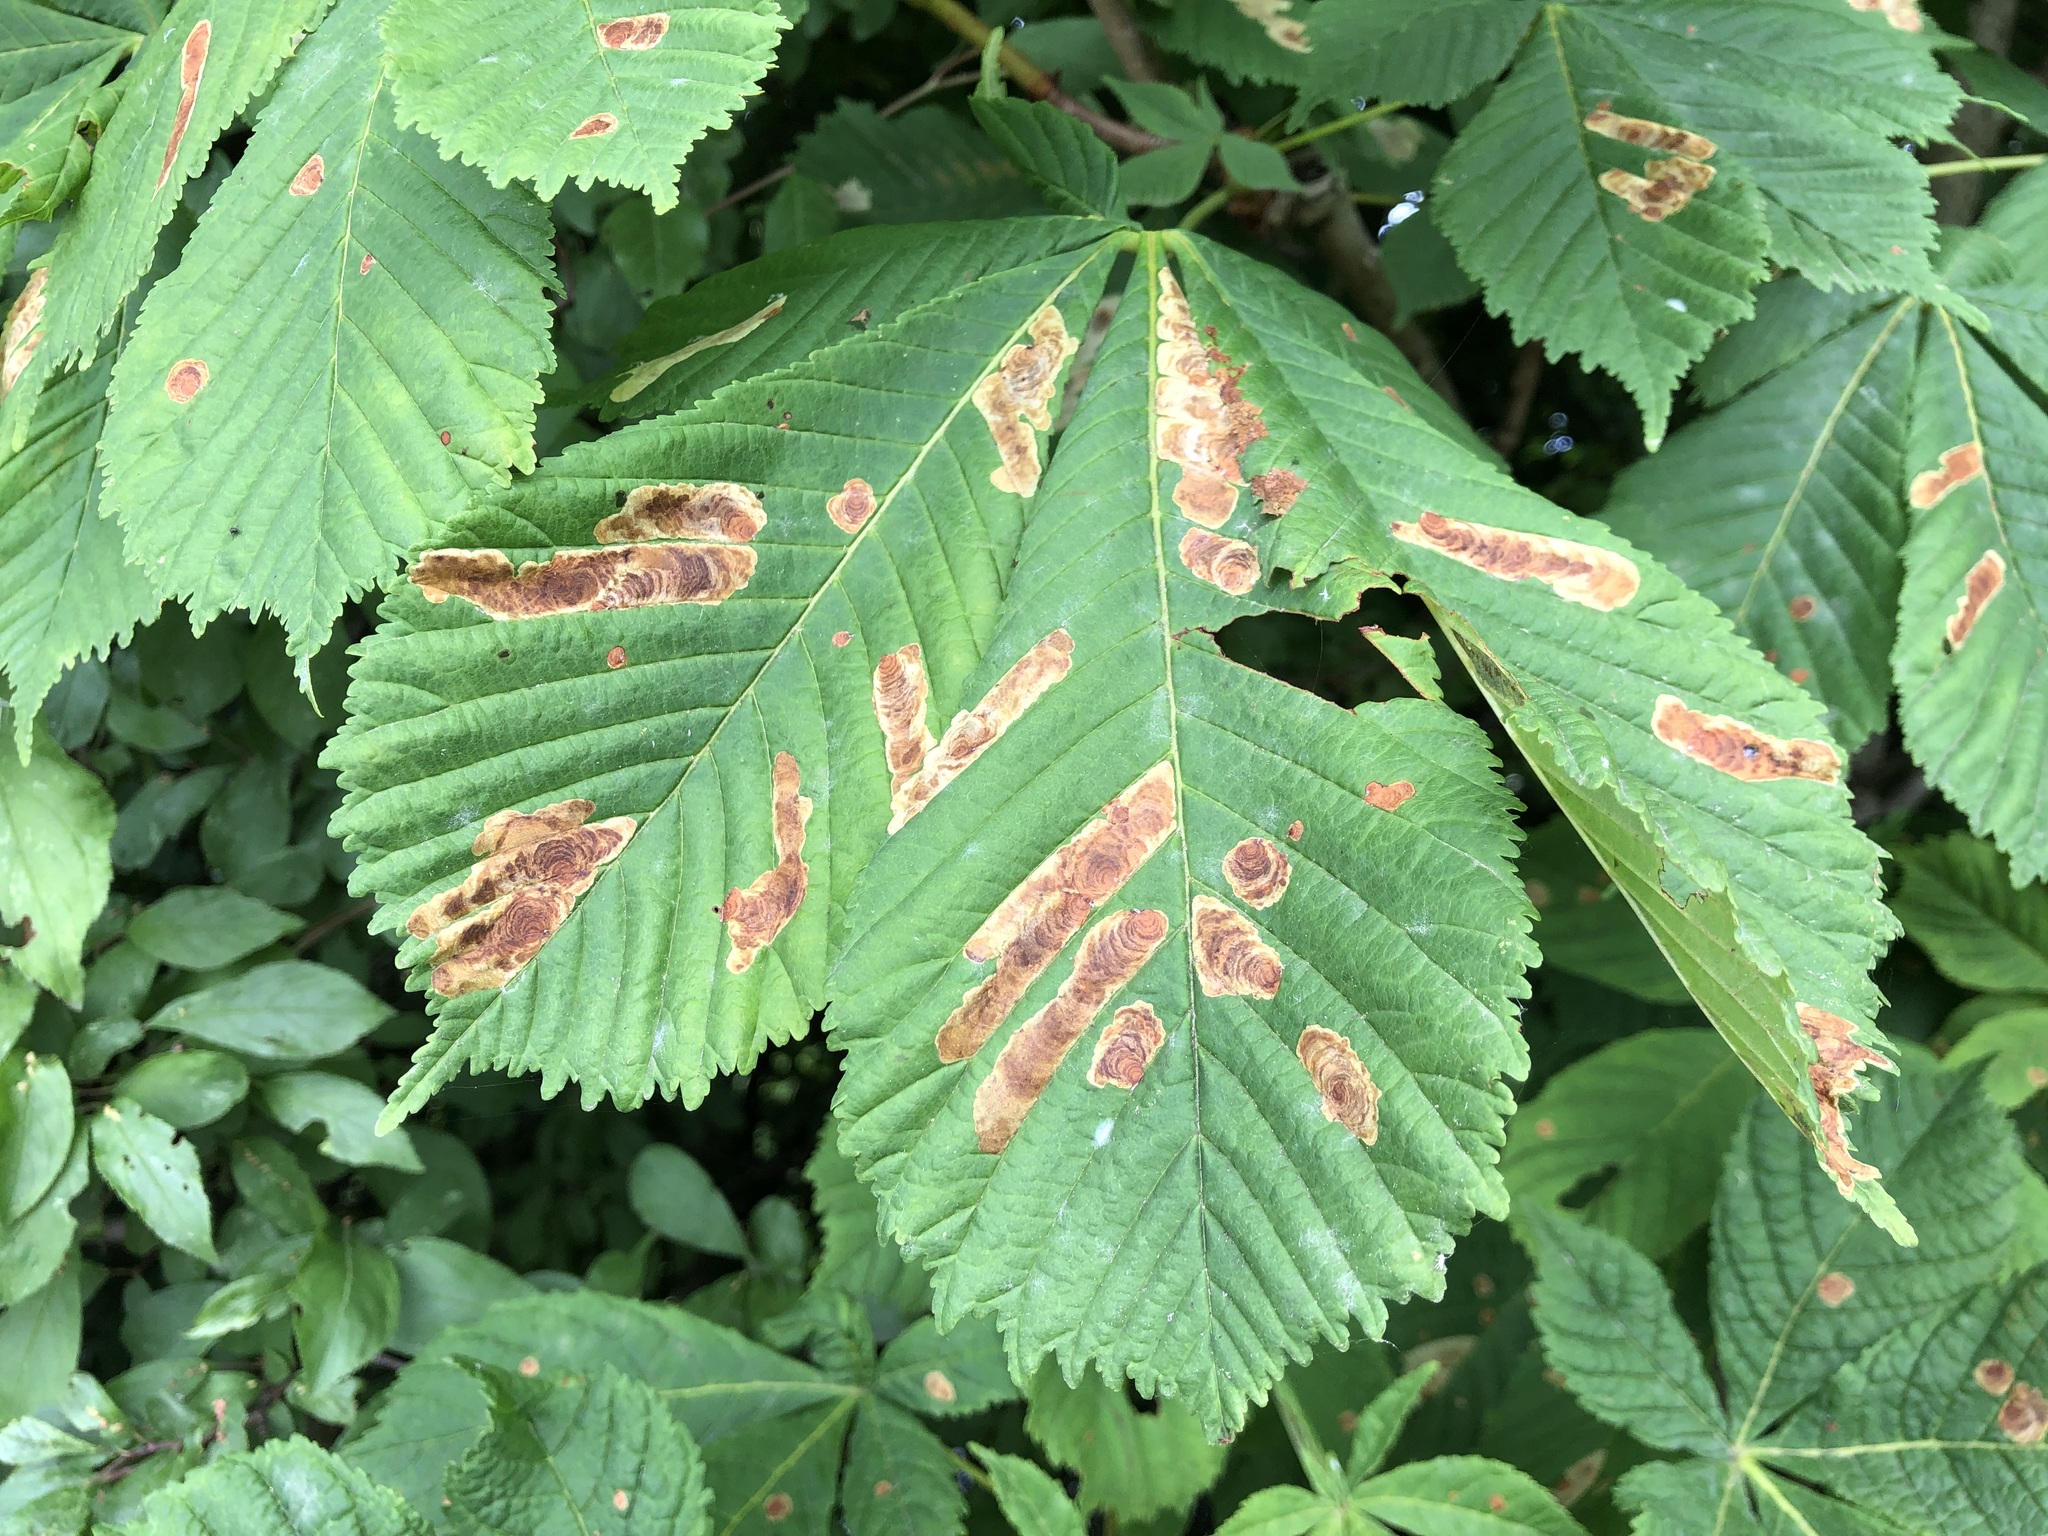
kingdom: Animalia
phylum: Arthropoda
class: Insecta
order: Lepidoptera
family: Gracillariidae
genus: Cameraria
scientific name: Cameraria ohridella
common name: Horse-chestnut leaf-miner
